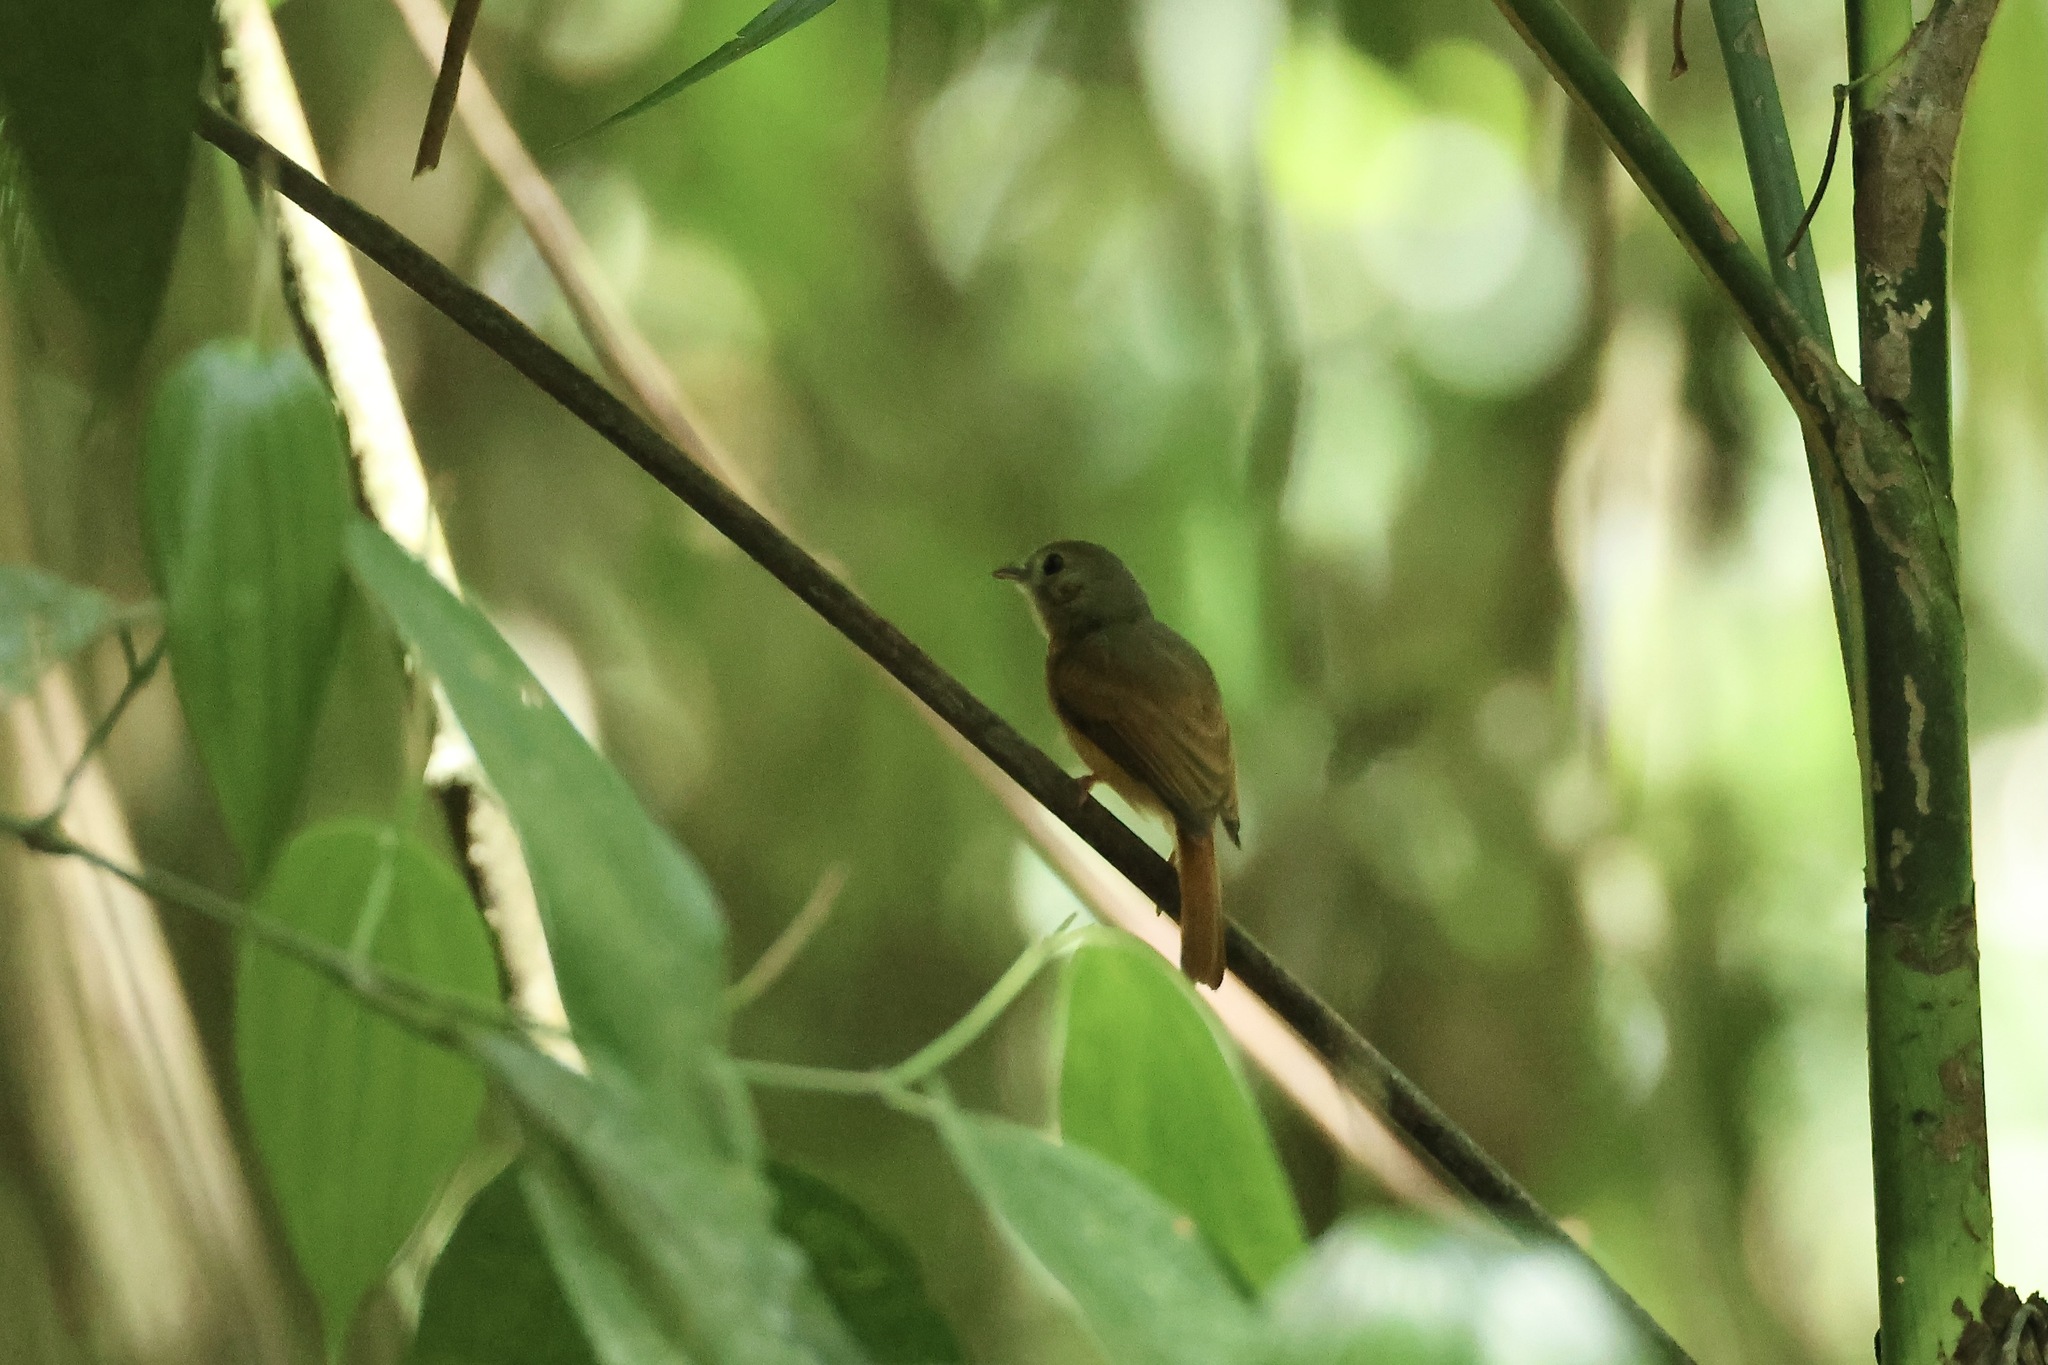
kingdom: Animalia
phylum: Chordata
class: Aves
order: Passeriformes
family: Tyrannidae
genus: Terenotriccus
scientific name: Terenotriccus erythrurus
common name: Ruddy-tailed flycatcher
